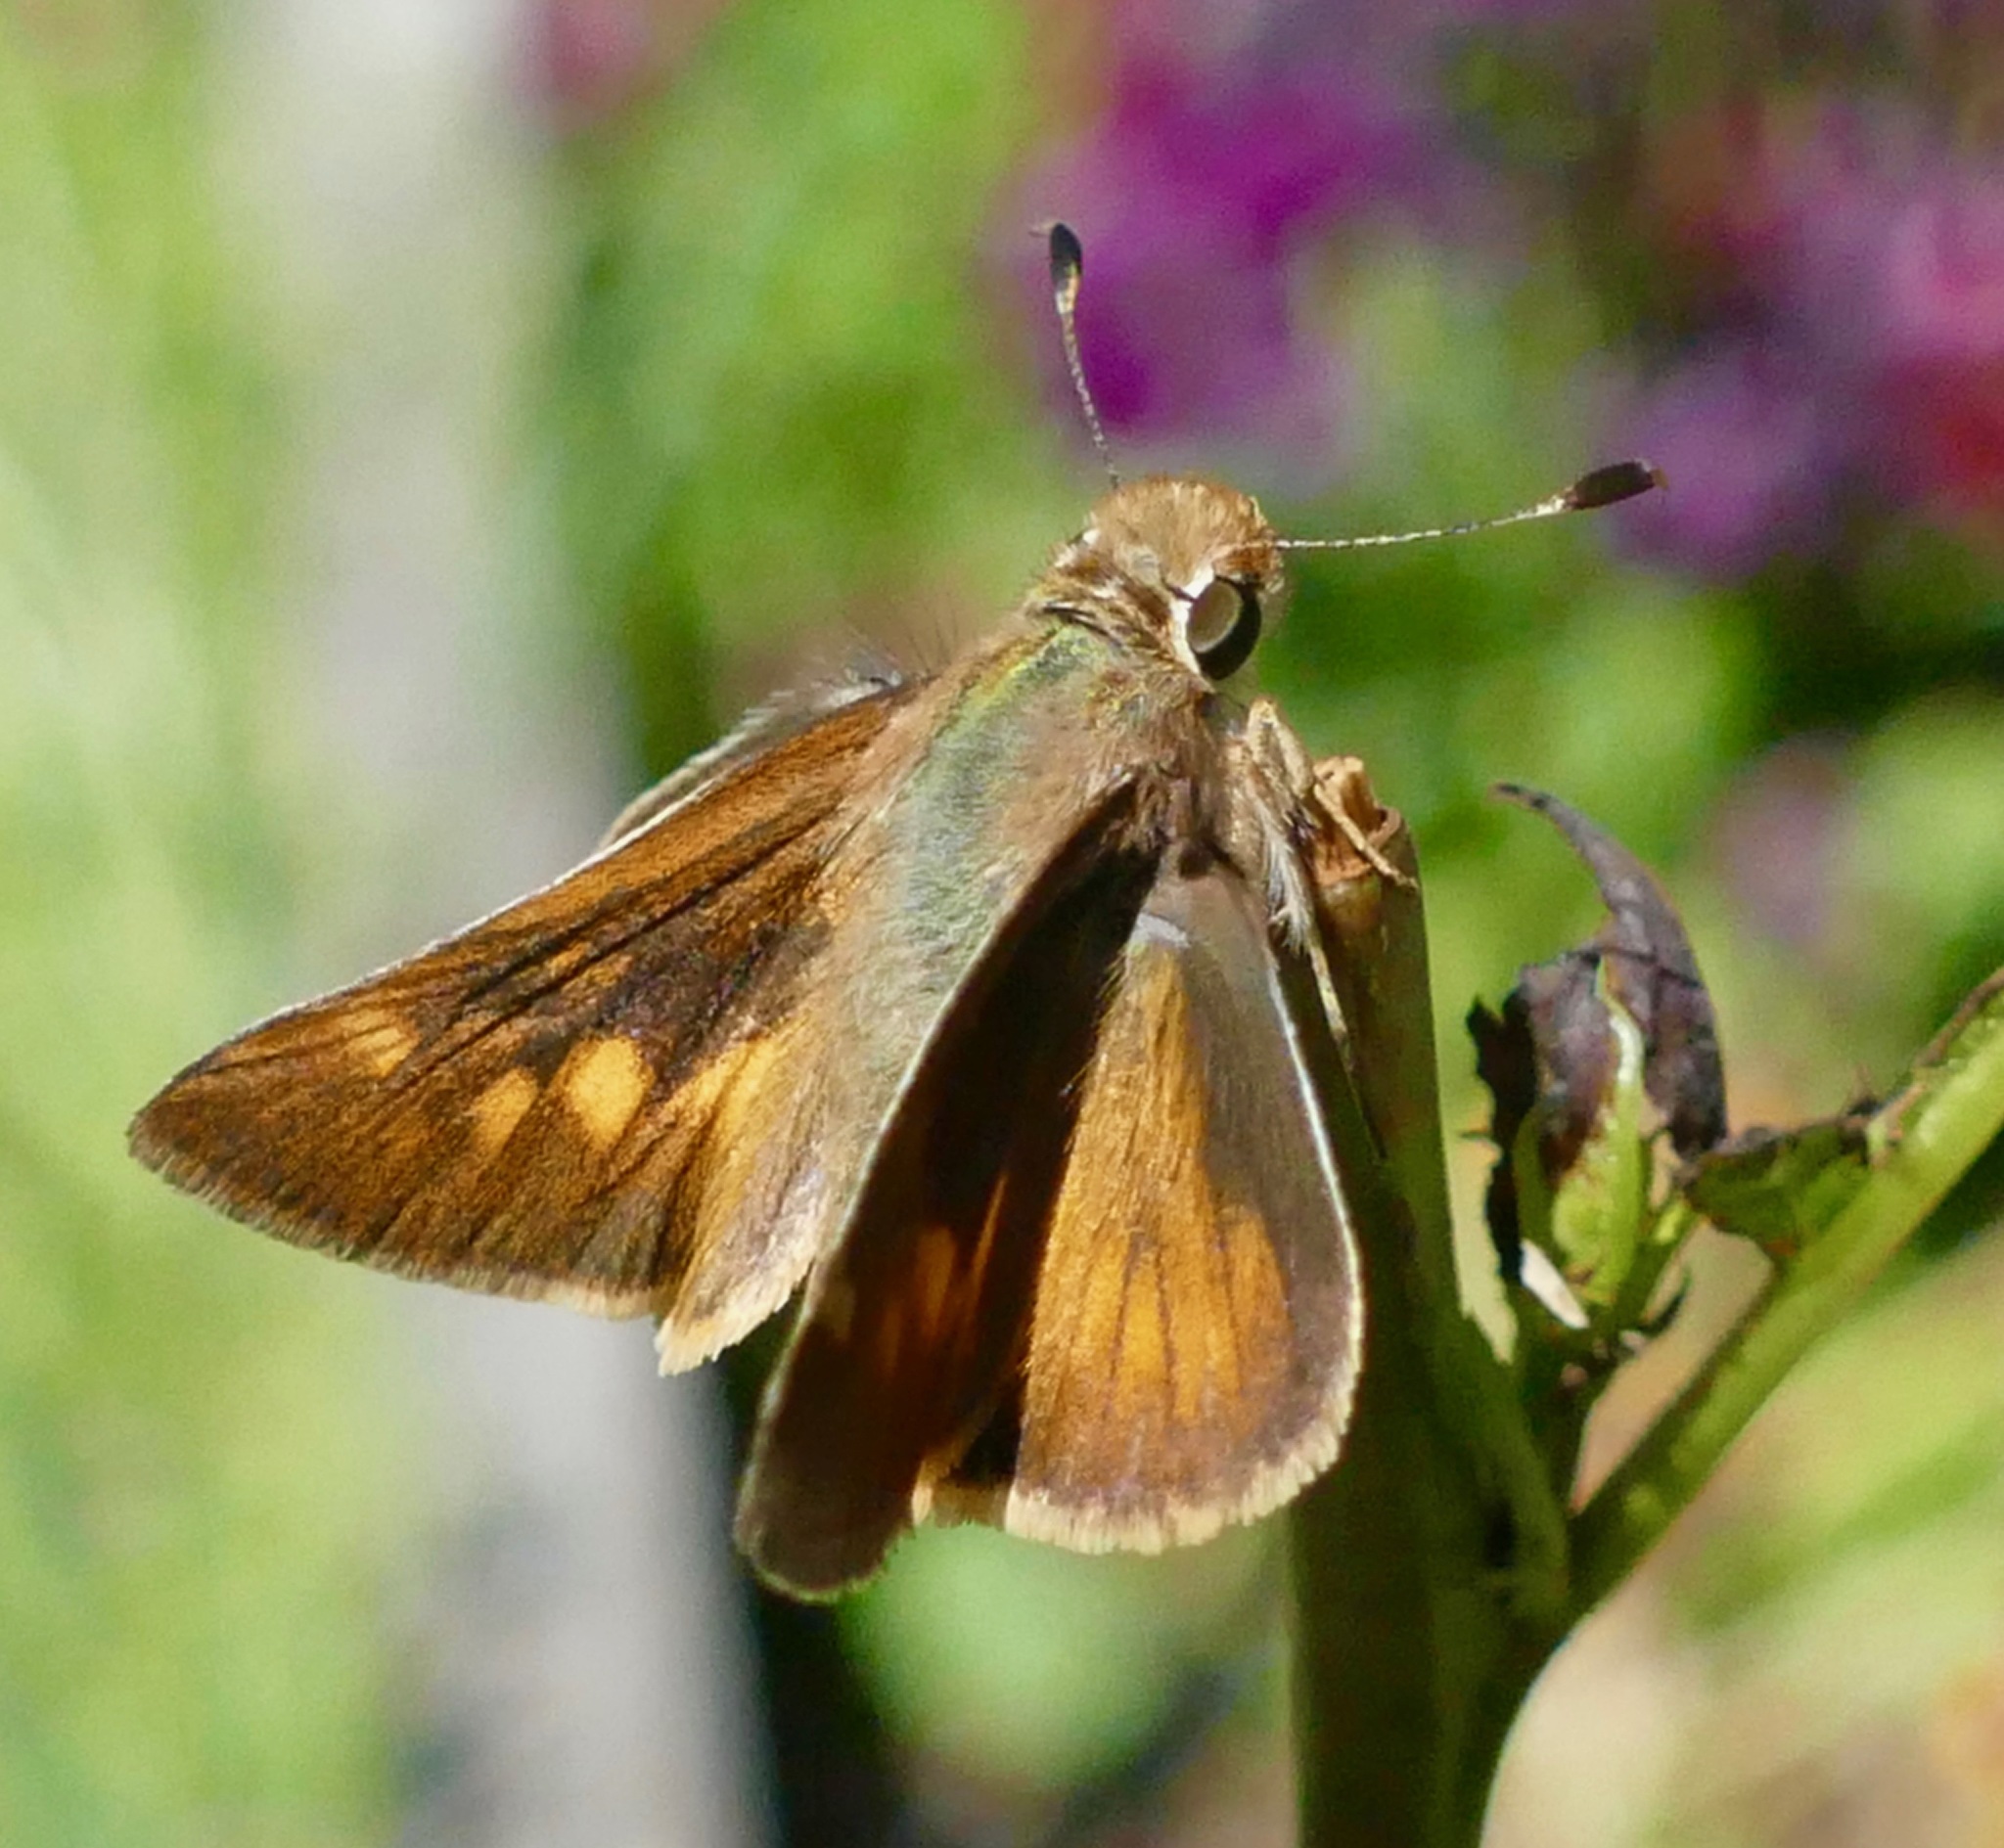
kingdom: Animalia
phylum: Arthropoda
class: Insecta
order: Lepidoptera
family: Hesperiidae
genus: Lon
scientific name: Lon melane
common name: Umber skipper
